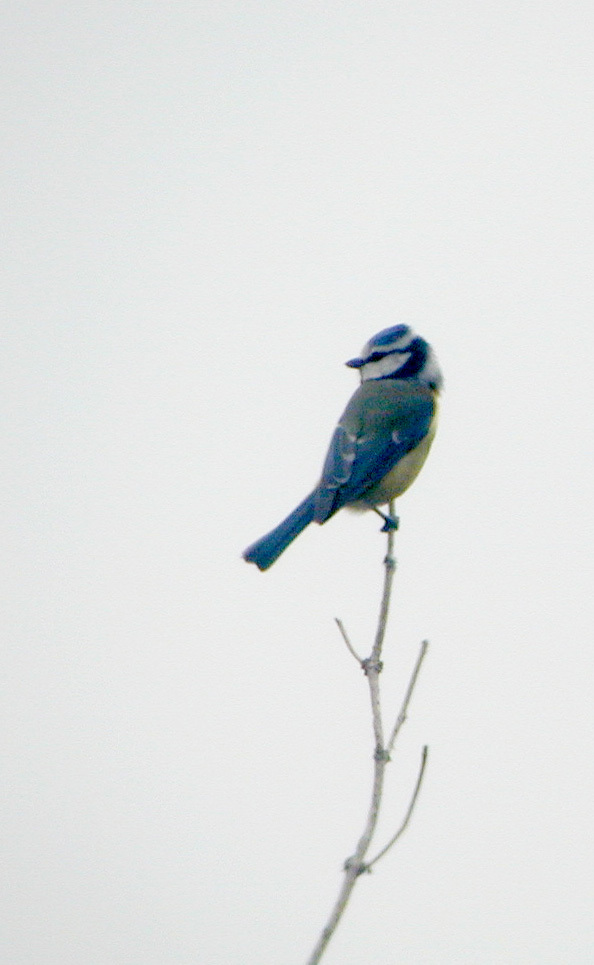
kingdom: Animalia
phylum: Chordata
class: Aves
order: Passeriformes
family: Paridae
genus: Cyanistes
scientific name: Cyanistes caeruleus
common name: Eurasian blue tit
